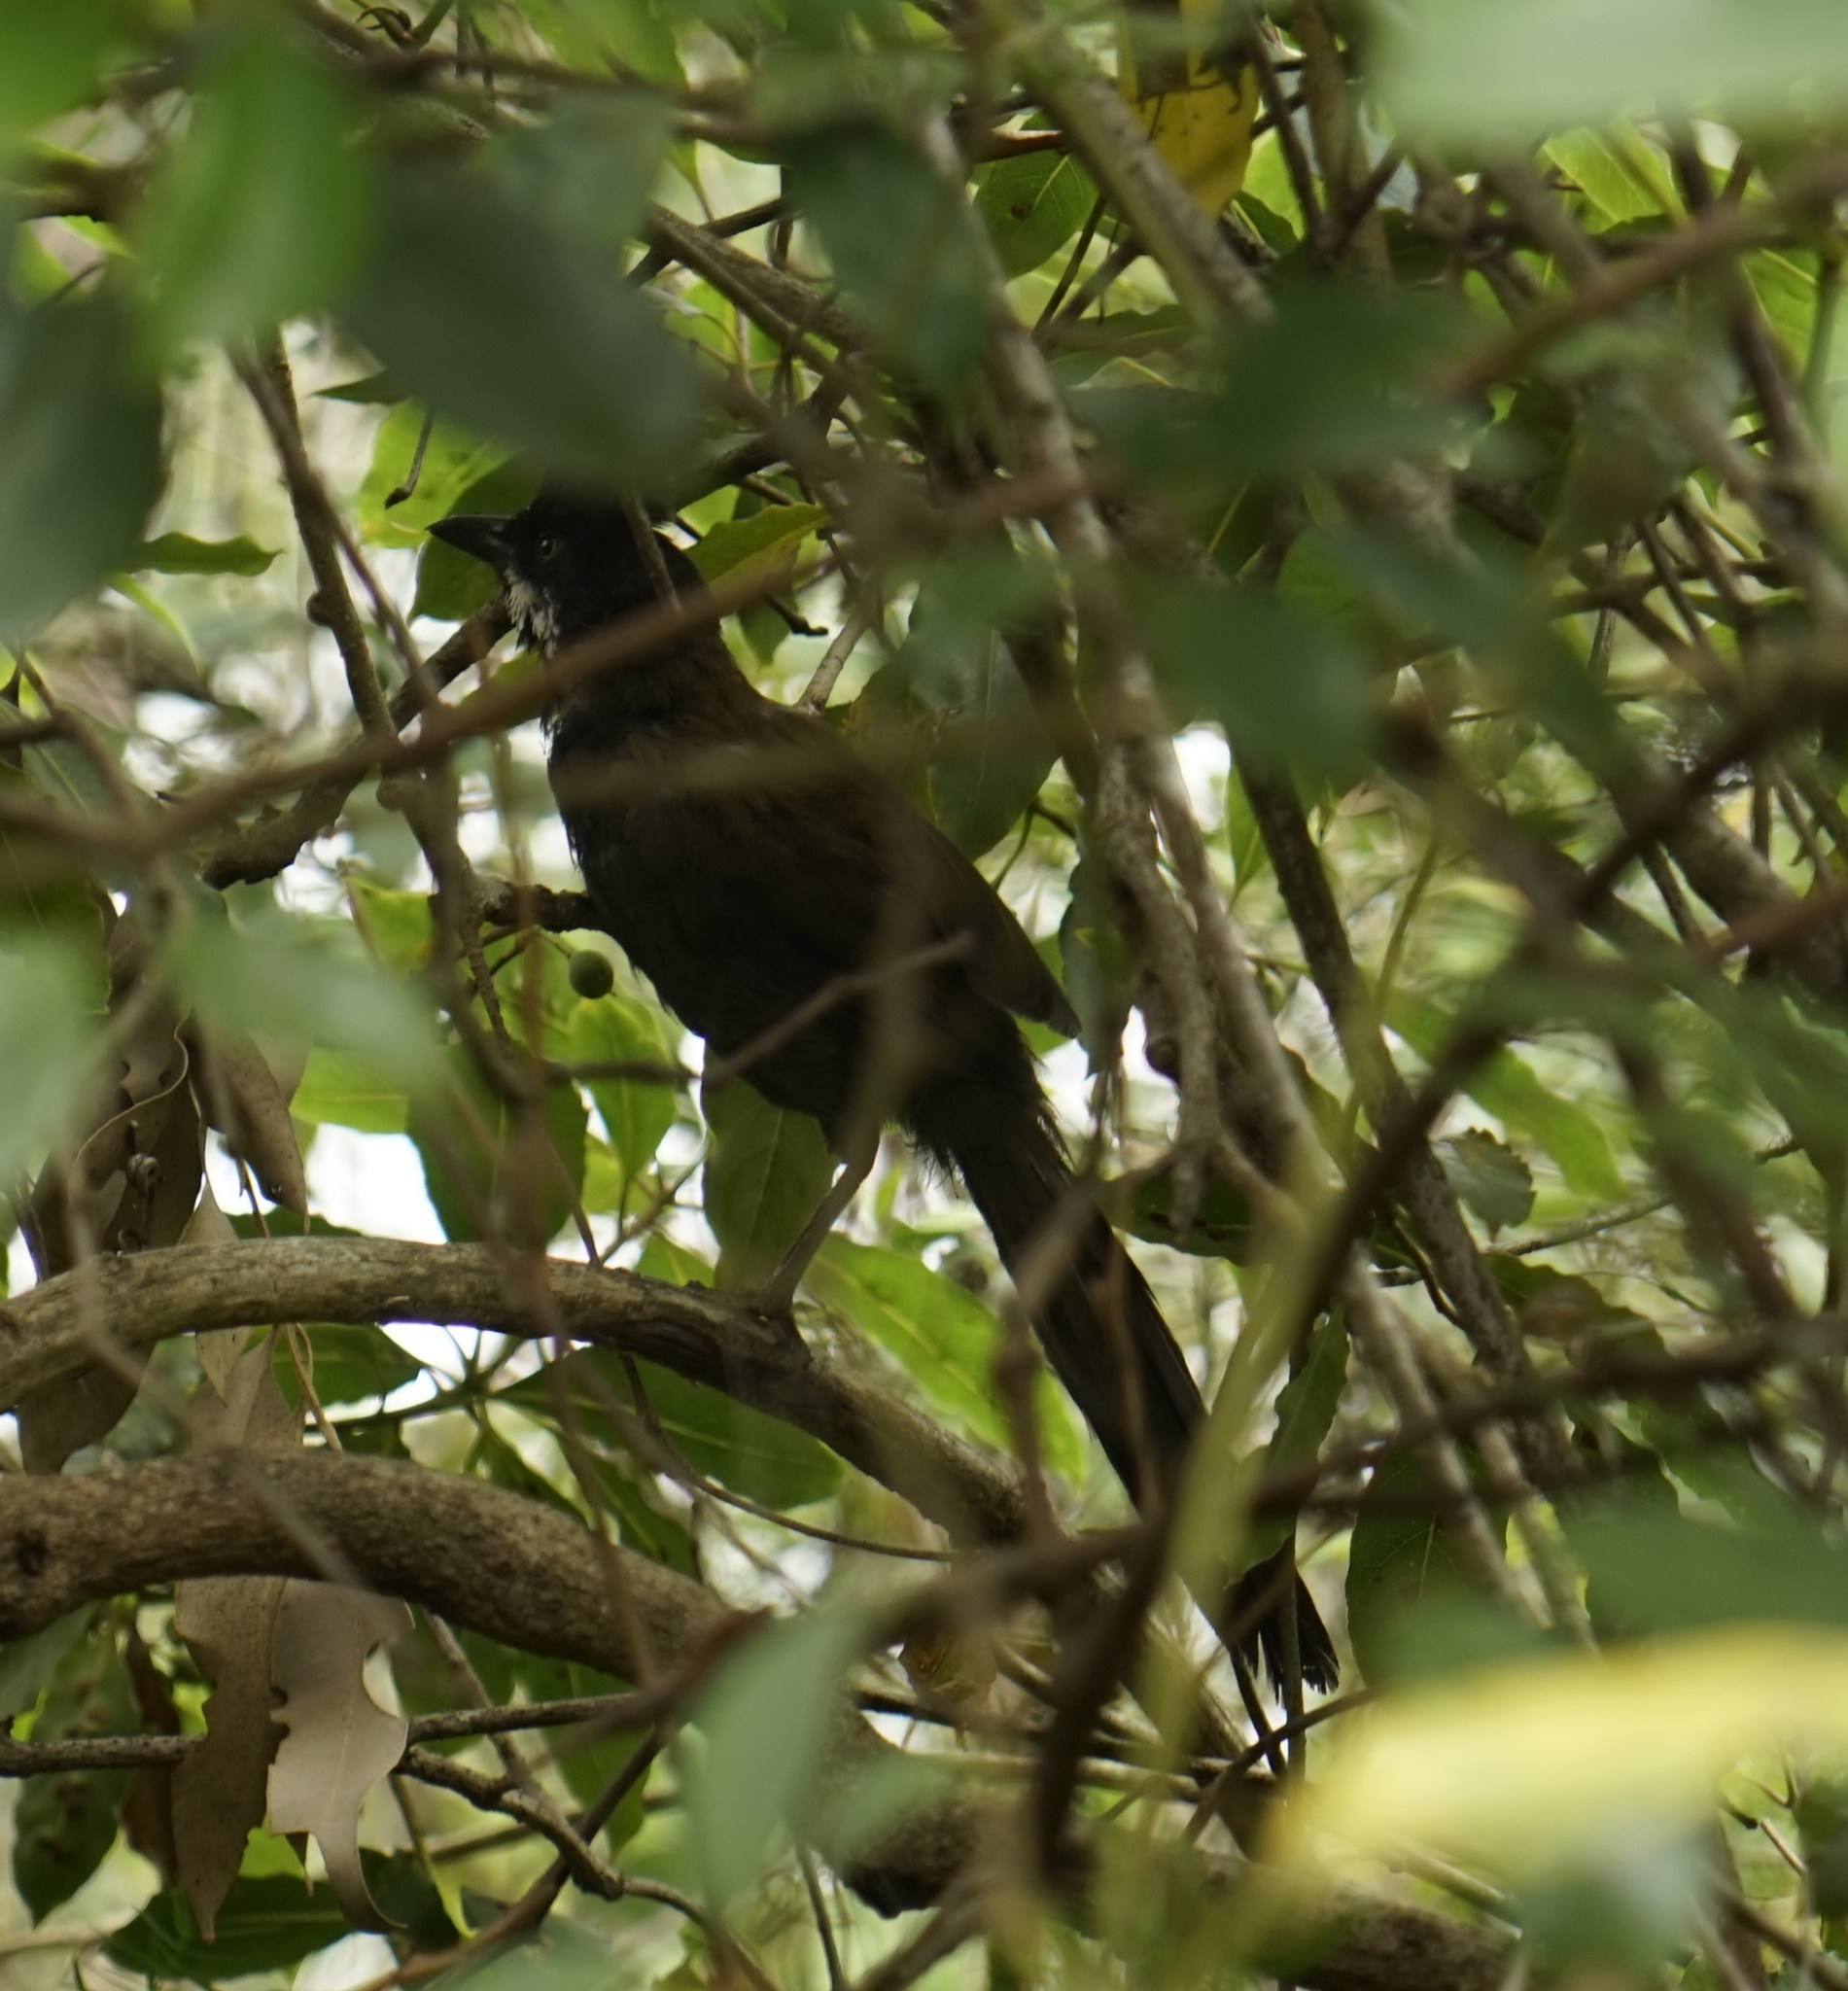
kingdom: Animalia
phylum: Chordata
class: Aves
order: Passeriformes
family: Psophodidae
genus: Psophodes
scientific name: Psophodes olivaceus
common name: Eastern whipbird
